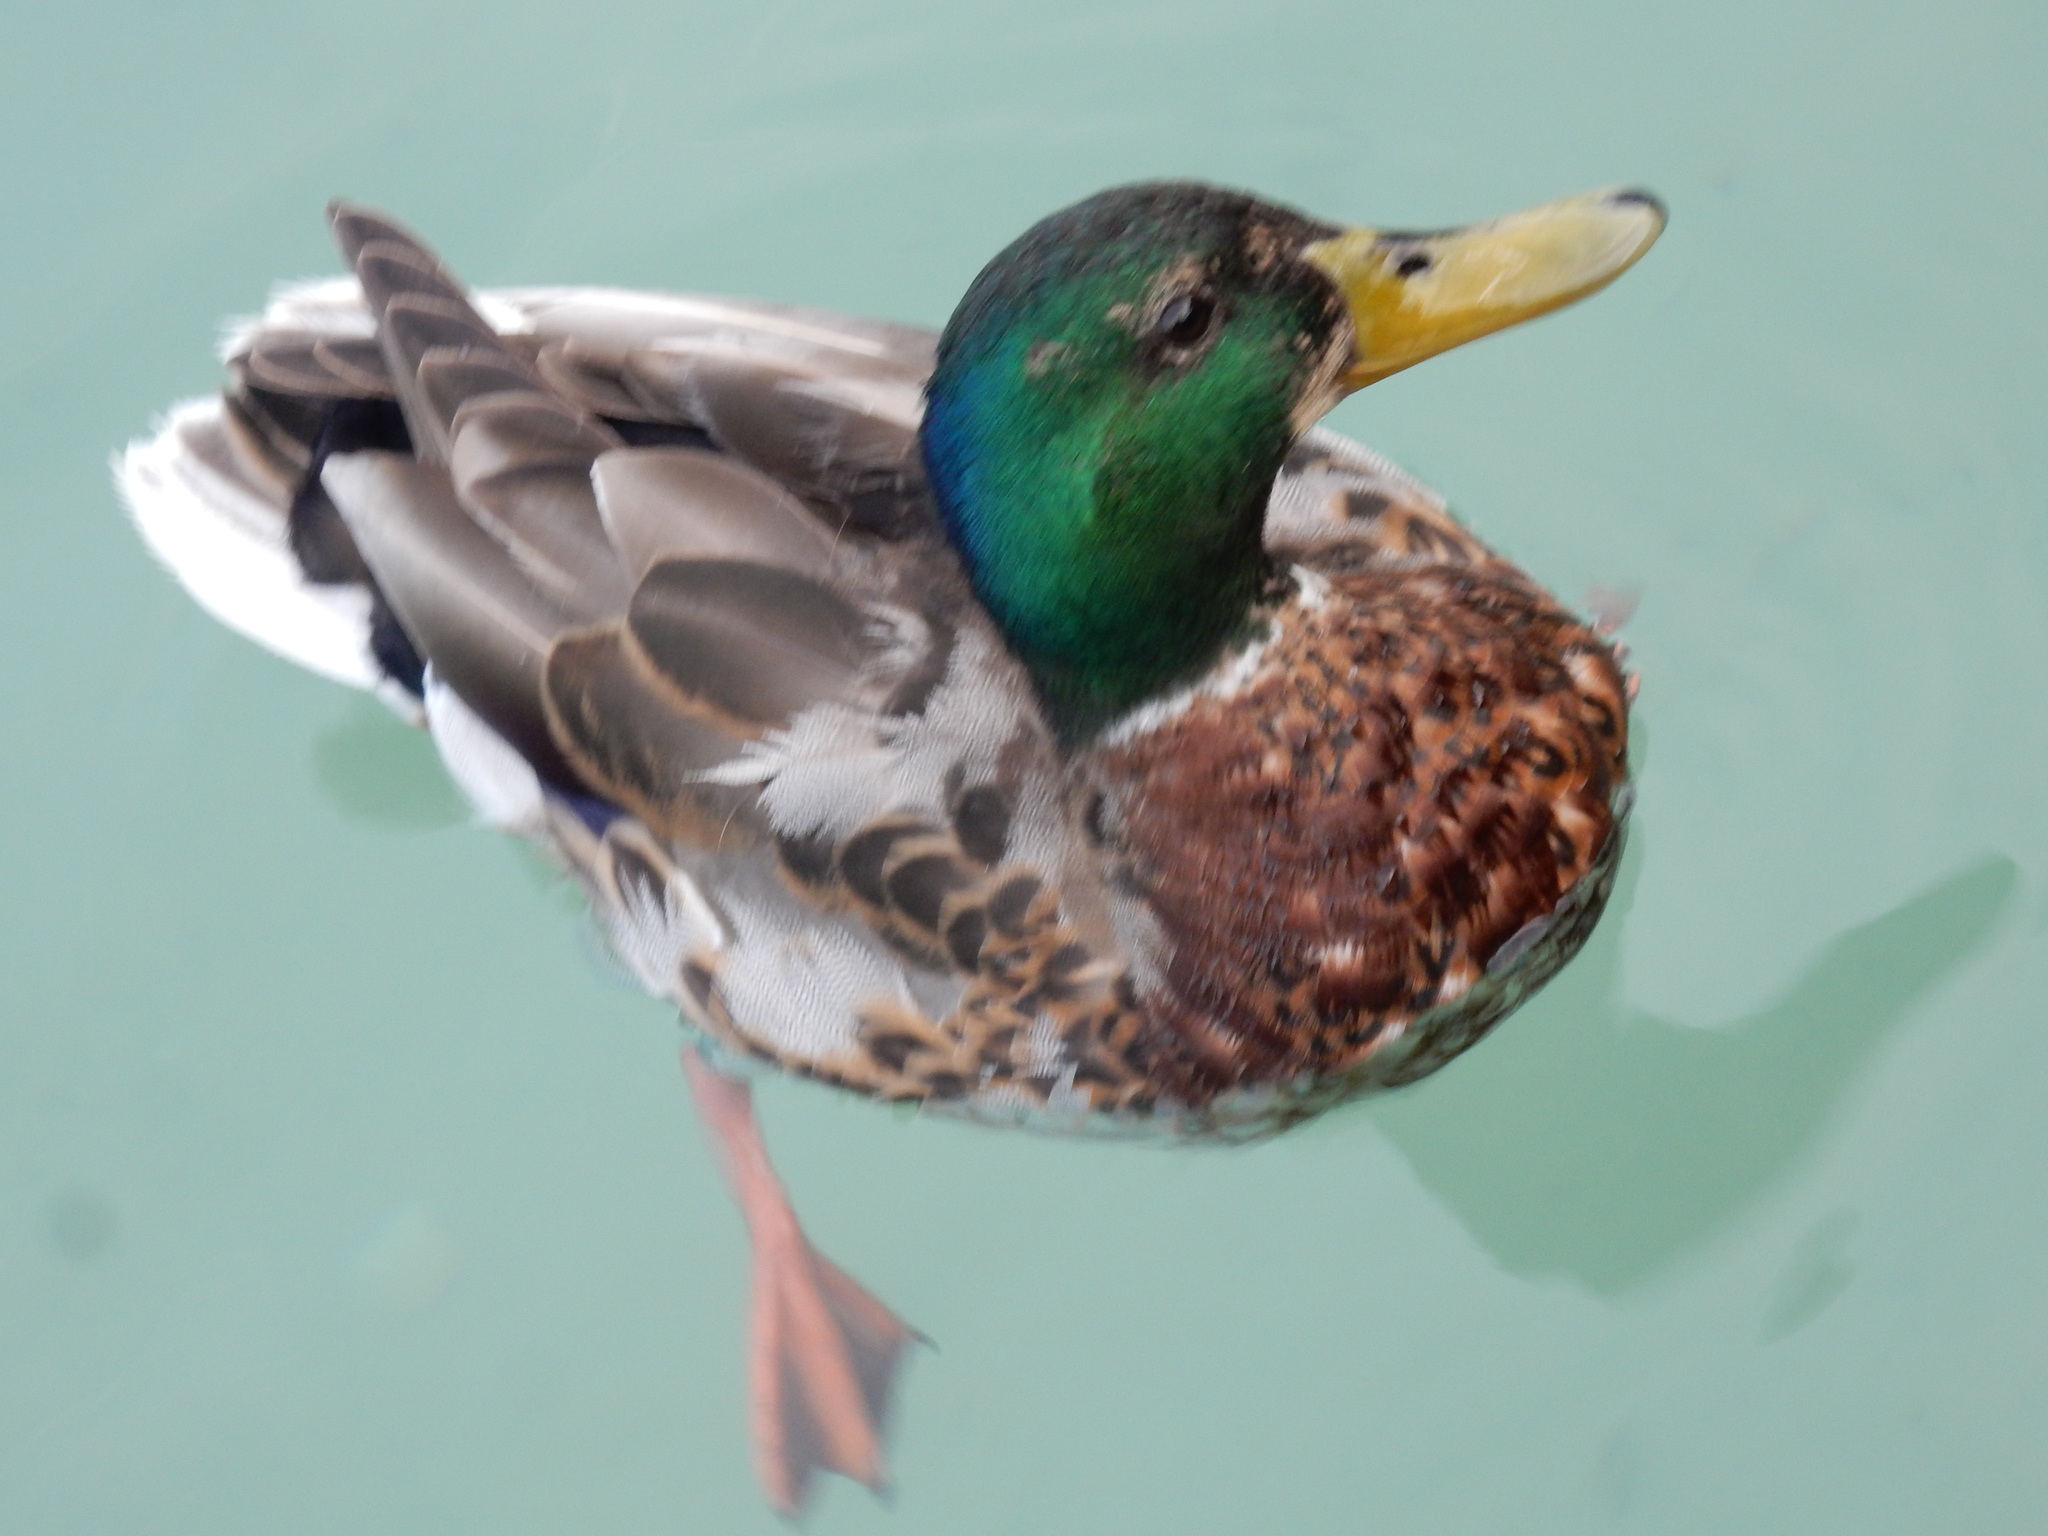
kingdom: Animalia
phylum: Chordata
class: Aves
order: Anseriformes
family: Anatidae
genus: Anas
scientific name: Anas platyrhynchos
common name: Mallard
